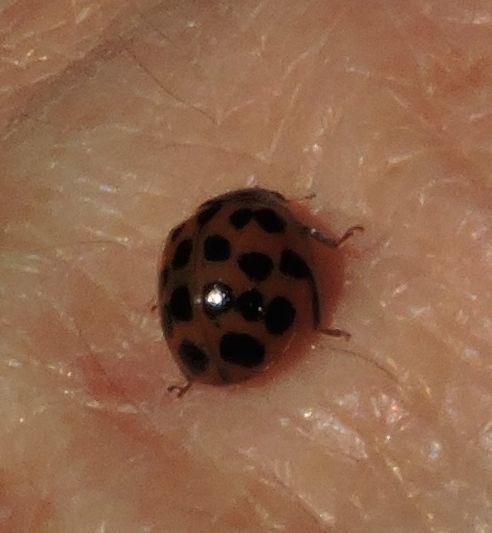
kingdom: Animalia
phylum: Arthropoda
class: Insecta
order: Coleoptera
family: Coccinellidae
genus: Harmonia
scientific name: Harmonia axyridis
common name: Harlequin ladybird
